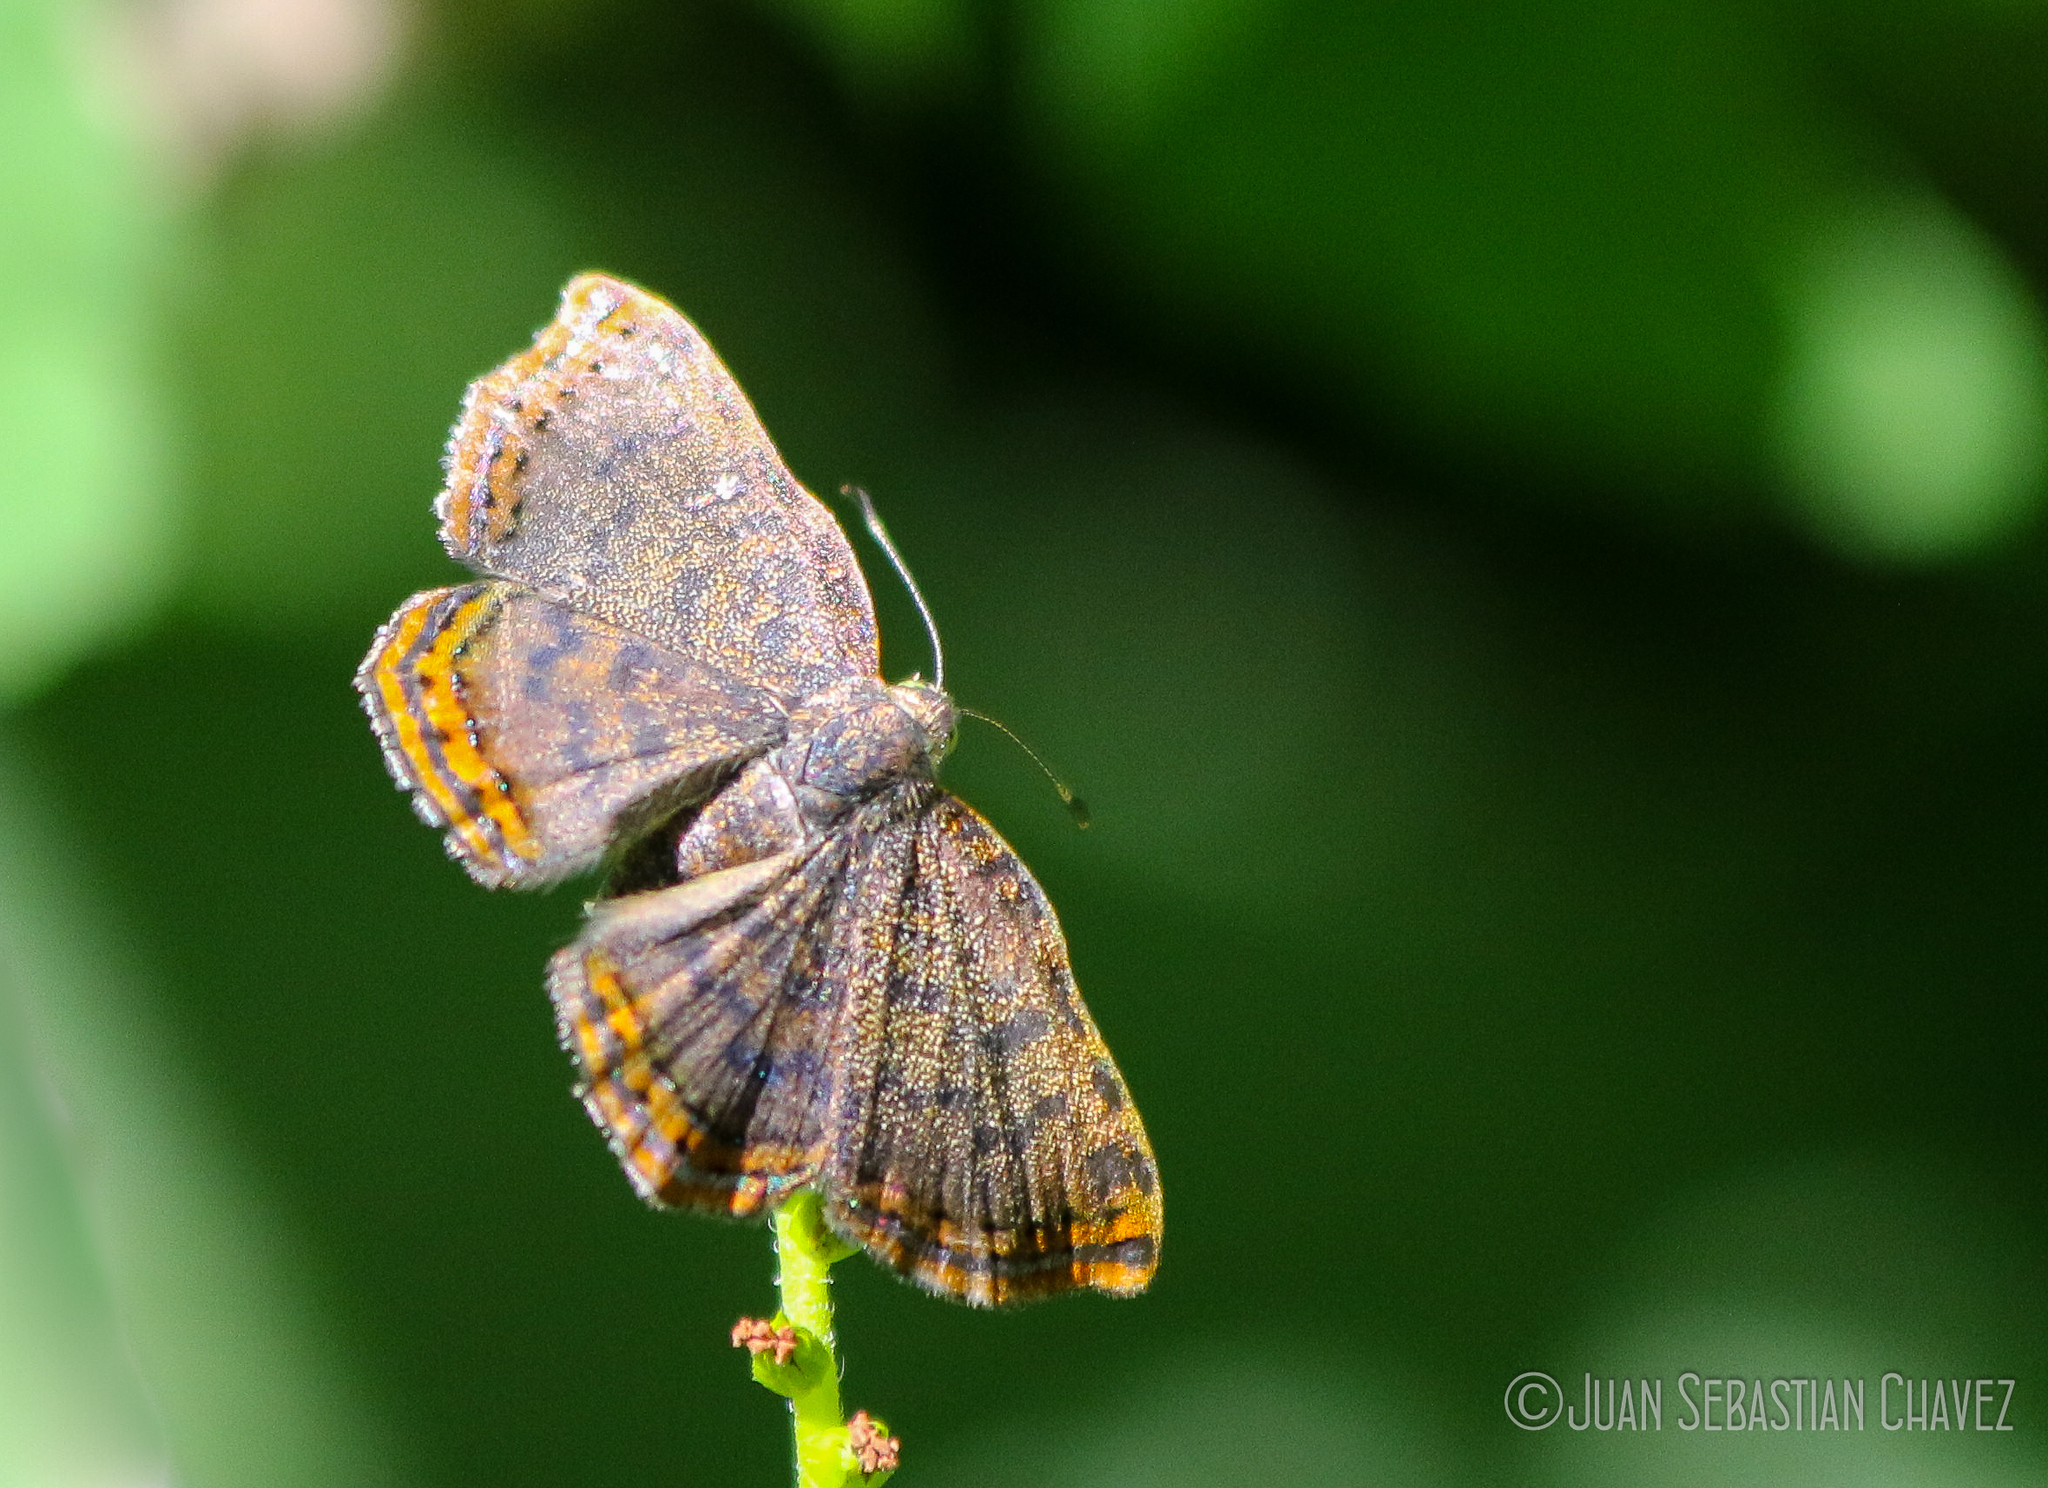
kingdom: Animalia
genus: Caria
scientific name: Caria ino
